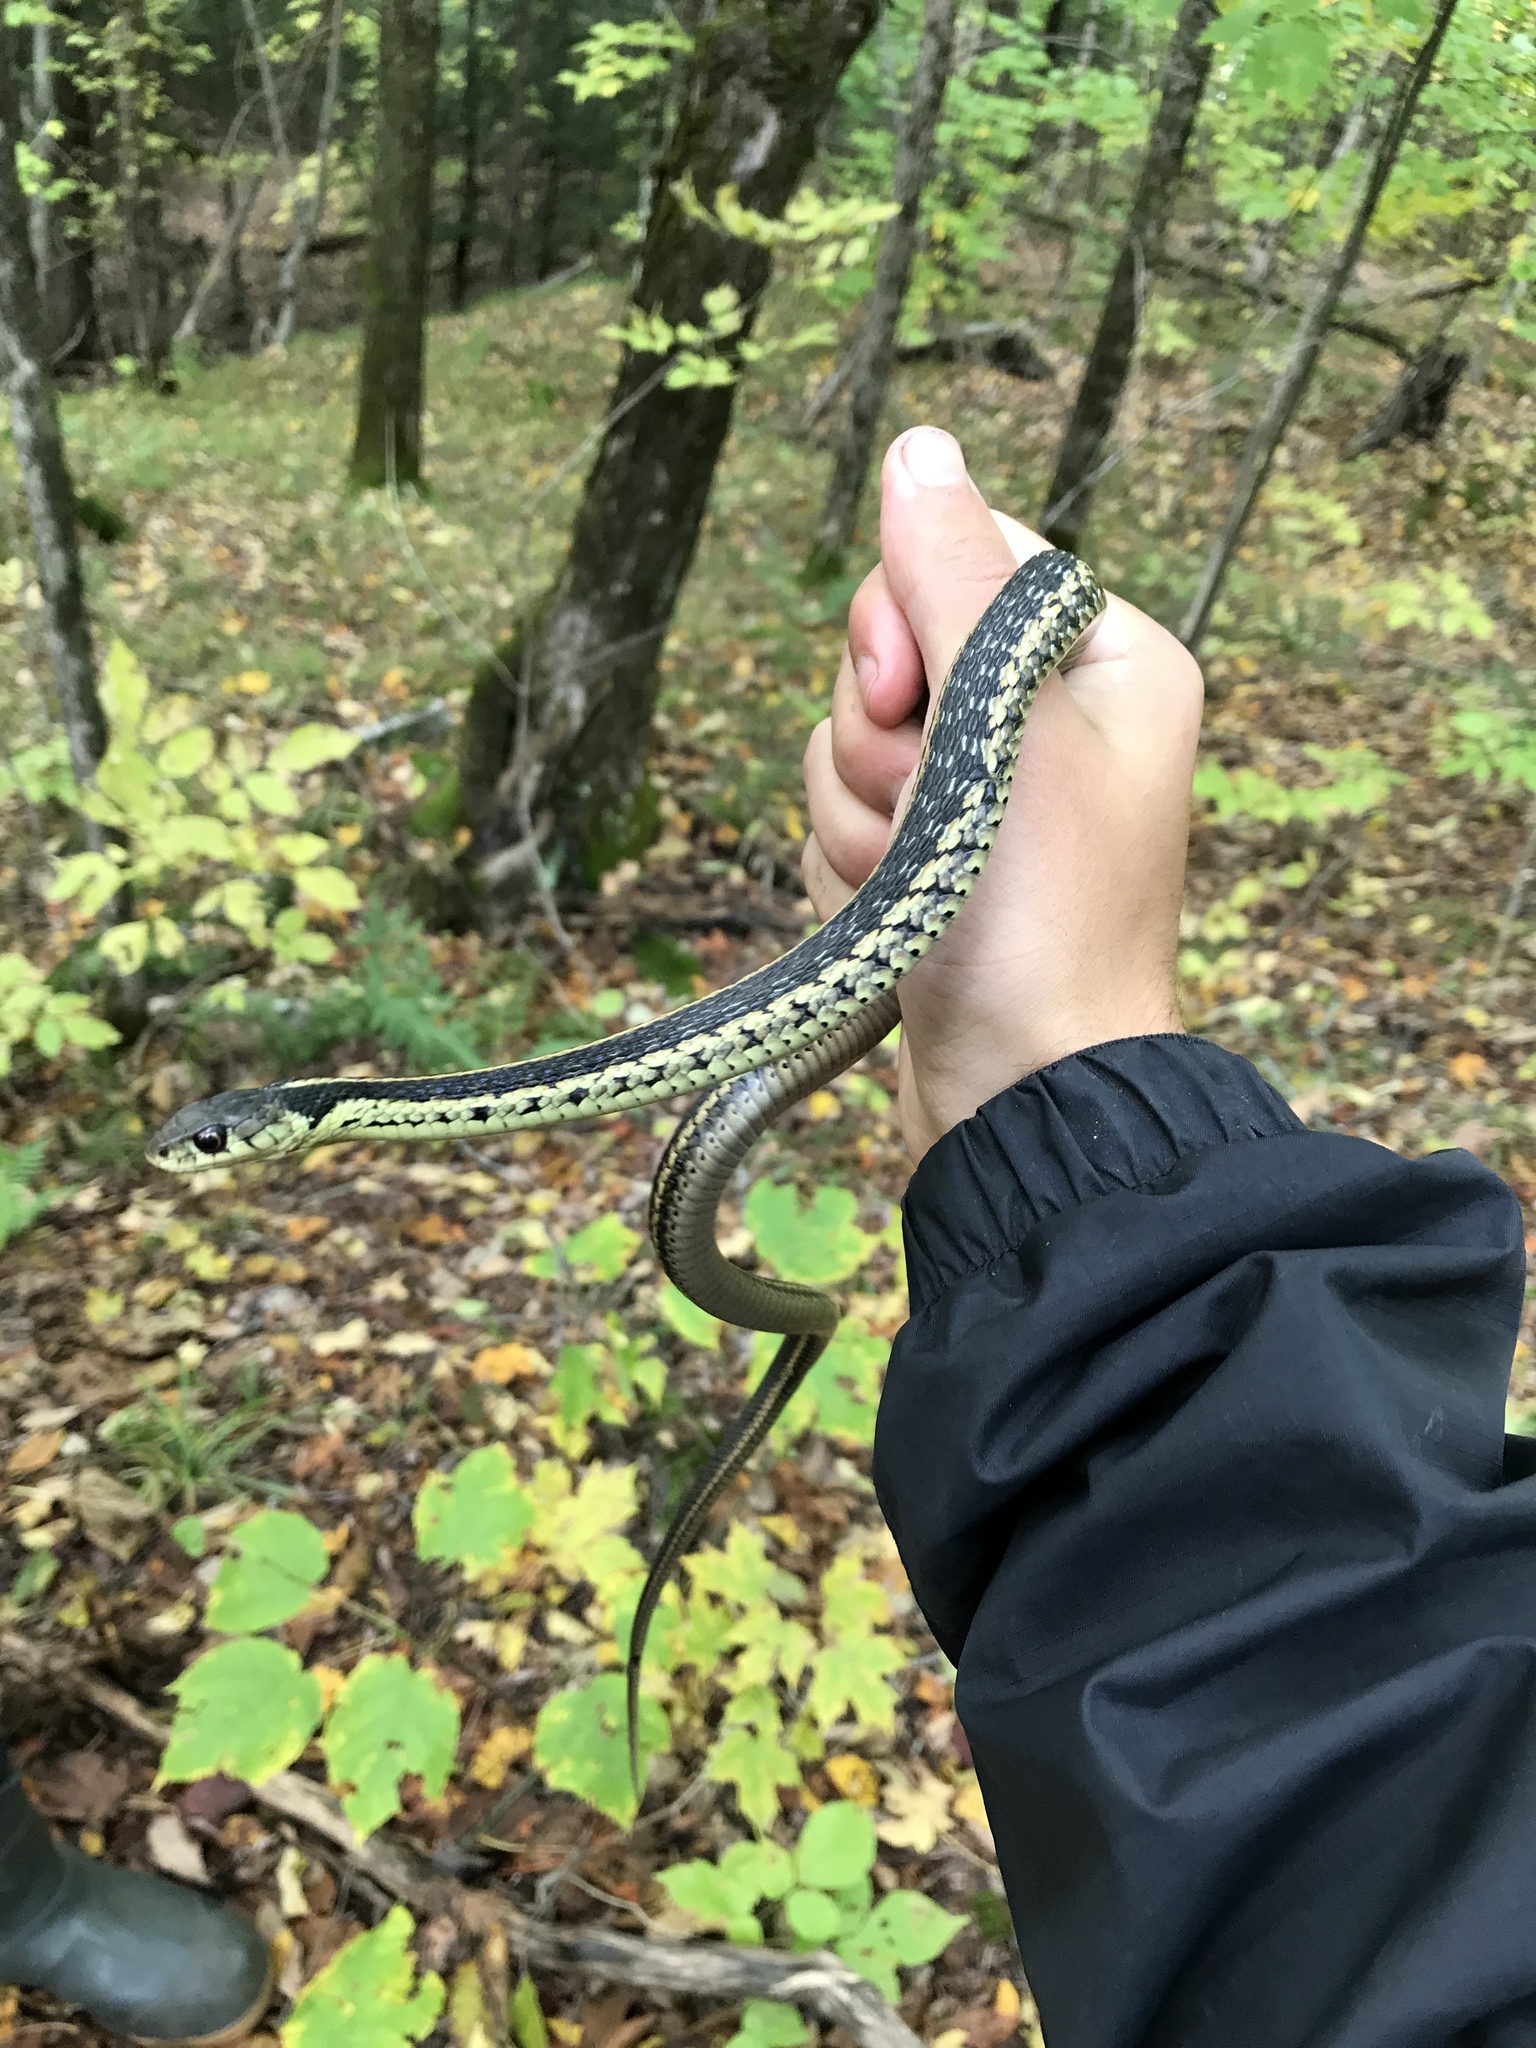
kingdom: Animalia
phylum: Chordata
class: Squamata
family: Colubridae
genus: Thamnophis
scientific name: Thamnophis sirtalis
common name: Common garter snake
